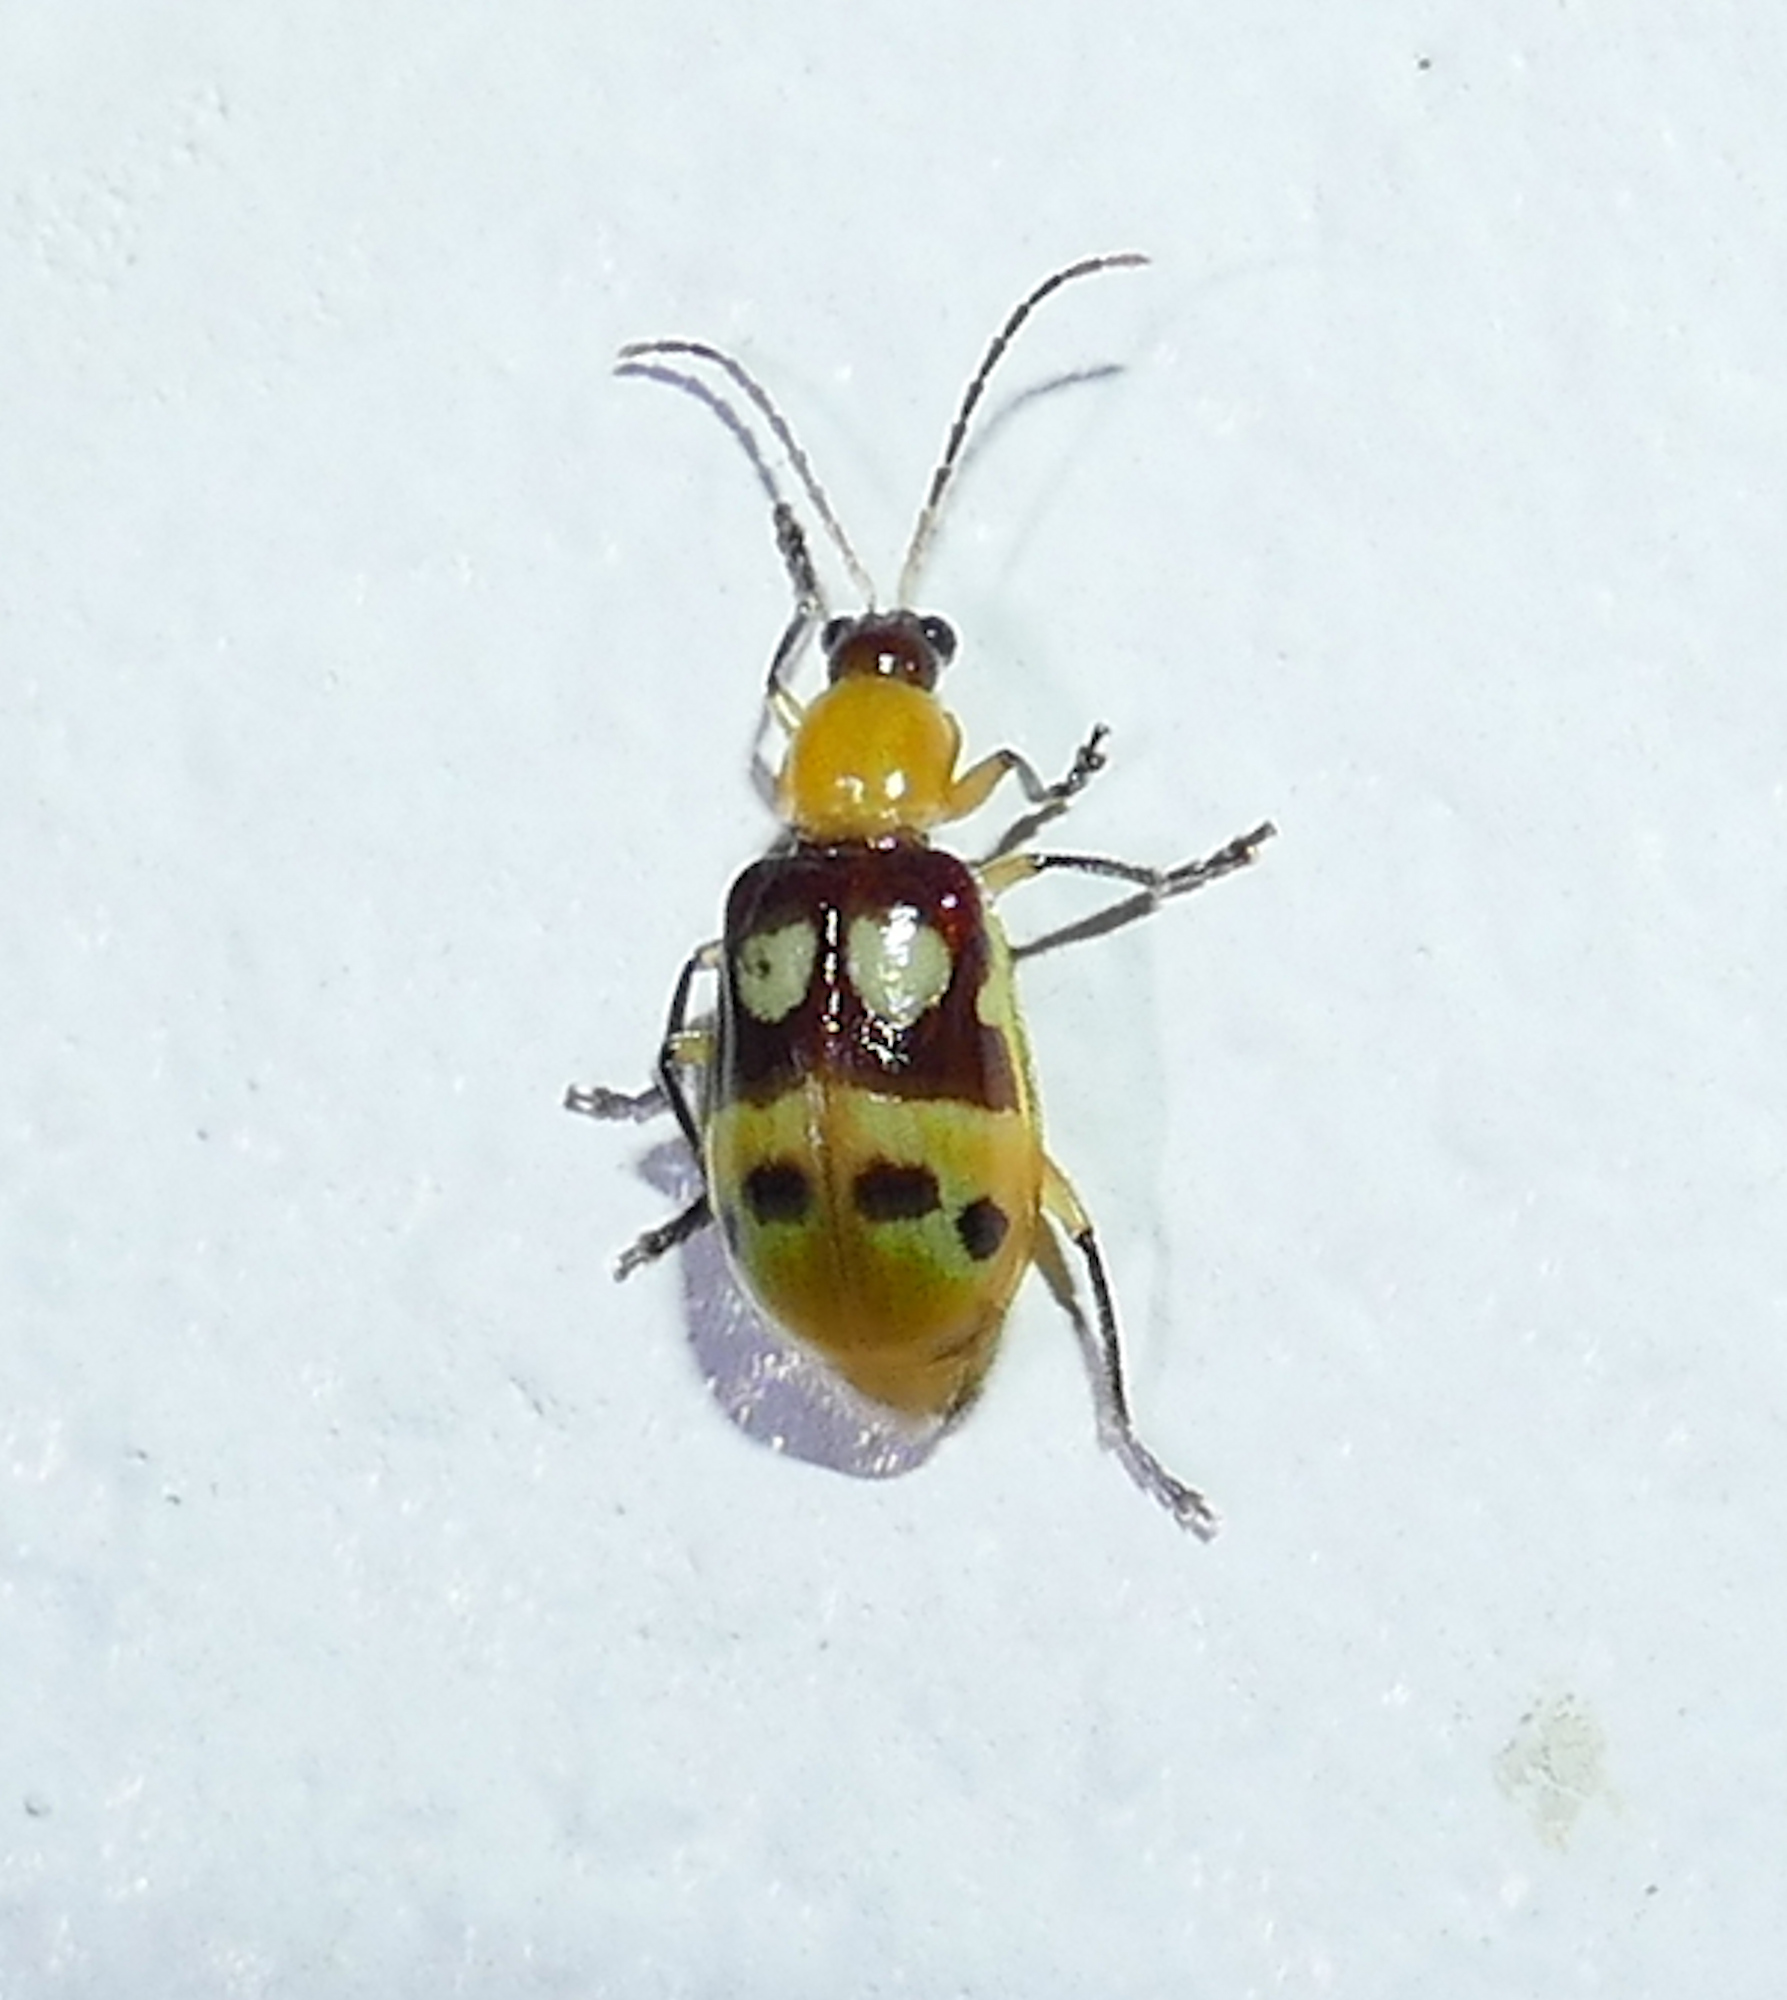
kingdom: Animalia
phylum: Arthropoda
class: Insecta
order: Coleoptera
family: Chrysomelidae
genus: Paranapiacaba
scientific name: Paranapiacaba connexa
